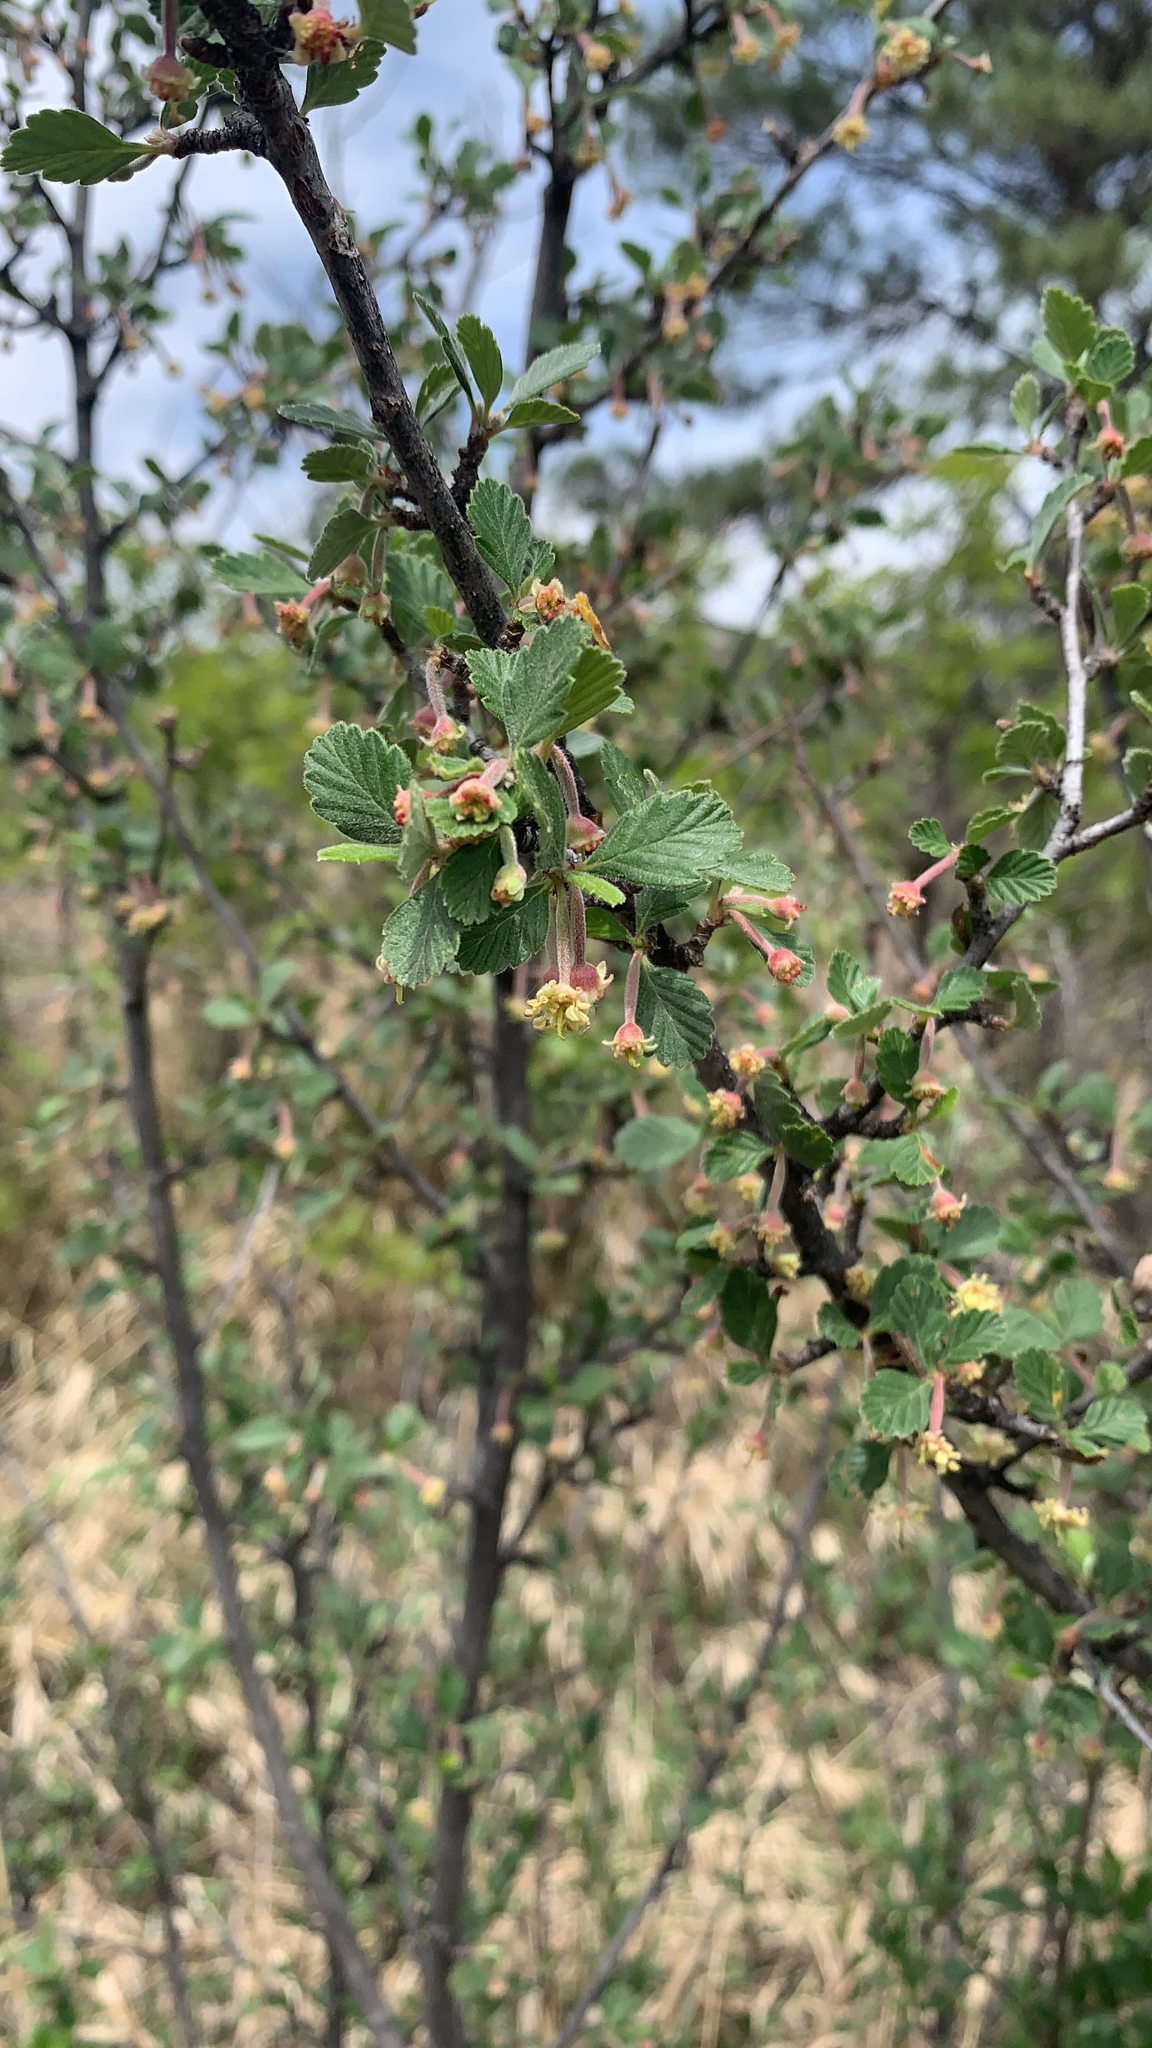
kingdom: Plantae
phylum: Tracheophyta
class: Magnoliopsida
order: Rosales
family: Rosaceae
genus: Cercocarpus
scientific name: Cercocarpus montanus
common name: Alder-leaf cercocarpus
